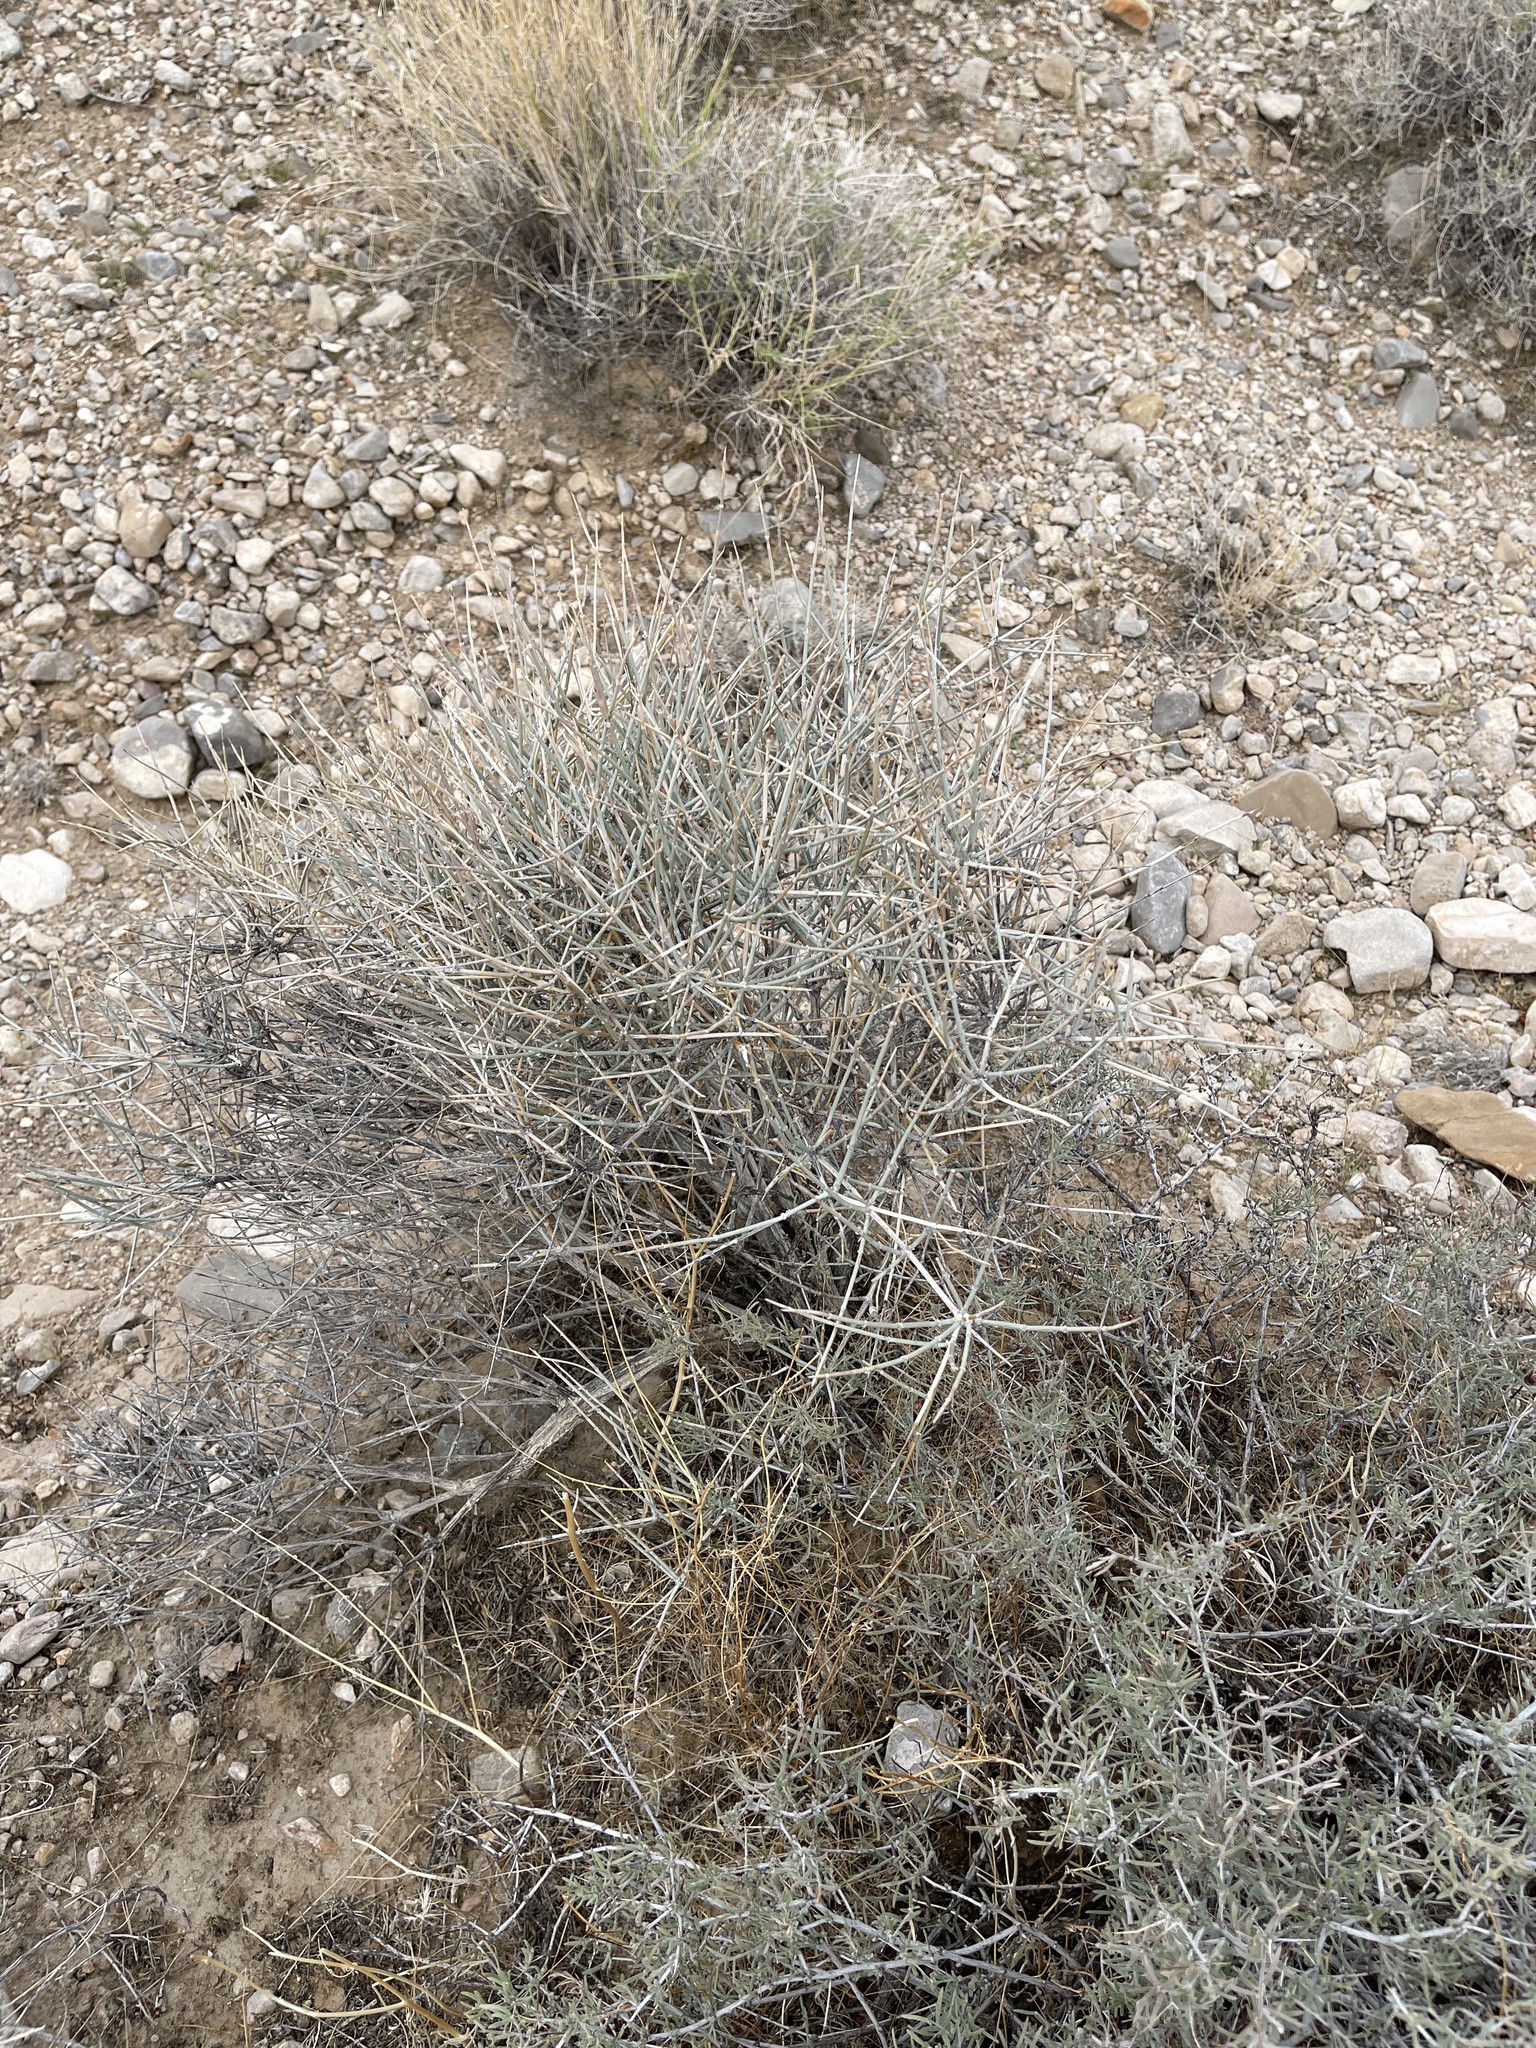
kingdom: Plantae
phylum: Tracheophyta
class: Gnetopsida
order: Ephedrales
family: Ephedraceae
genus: Ephedra
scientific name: Ephedra nevadensis
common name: Gray ephedra
